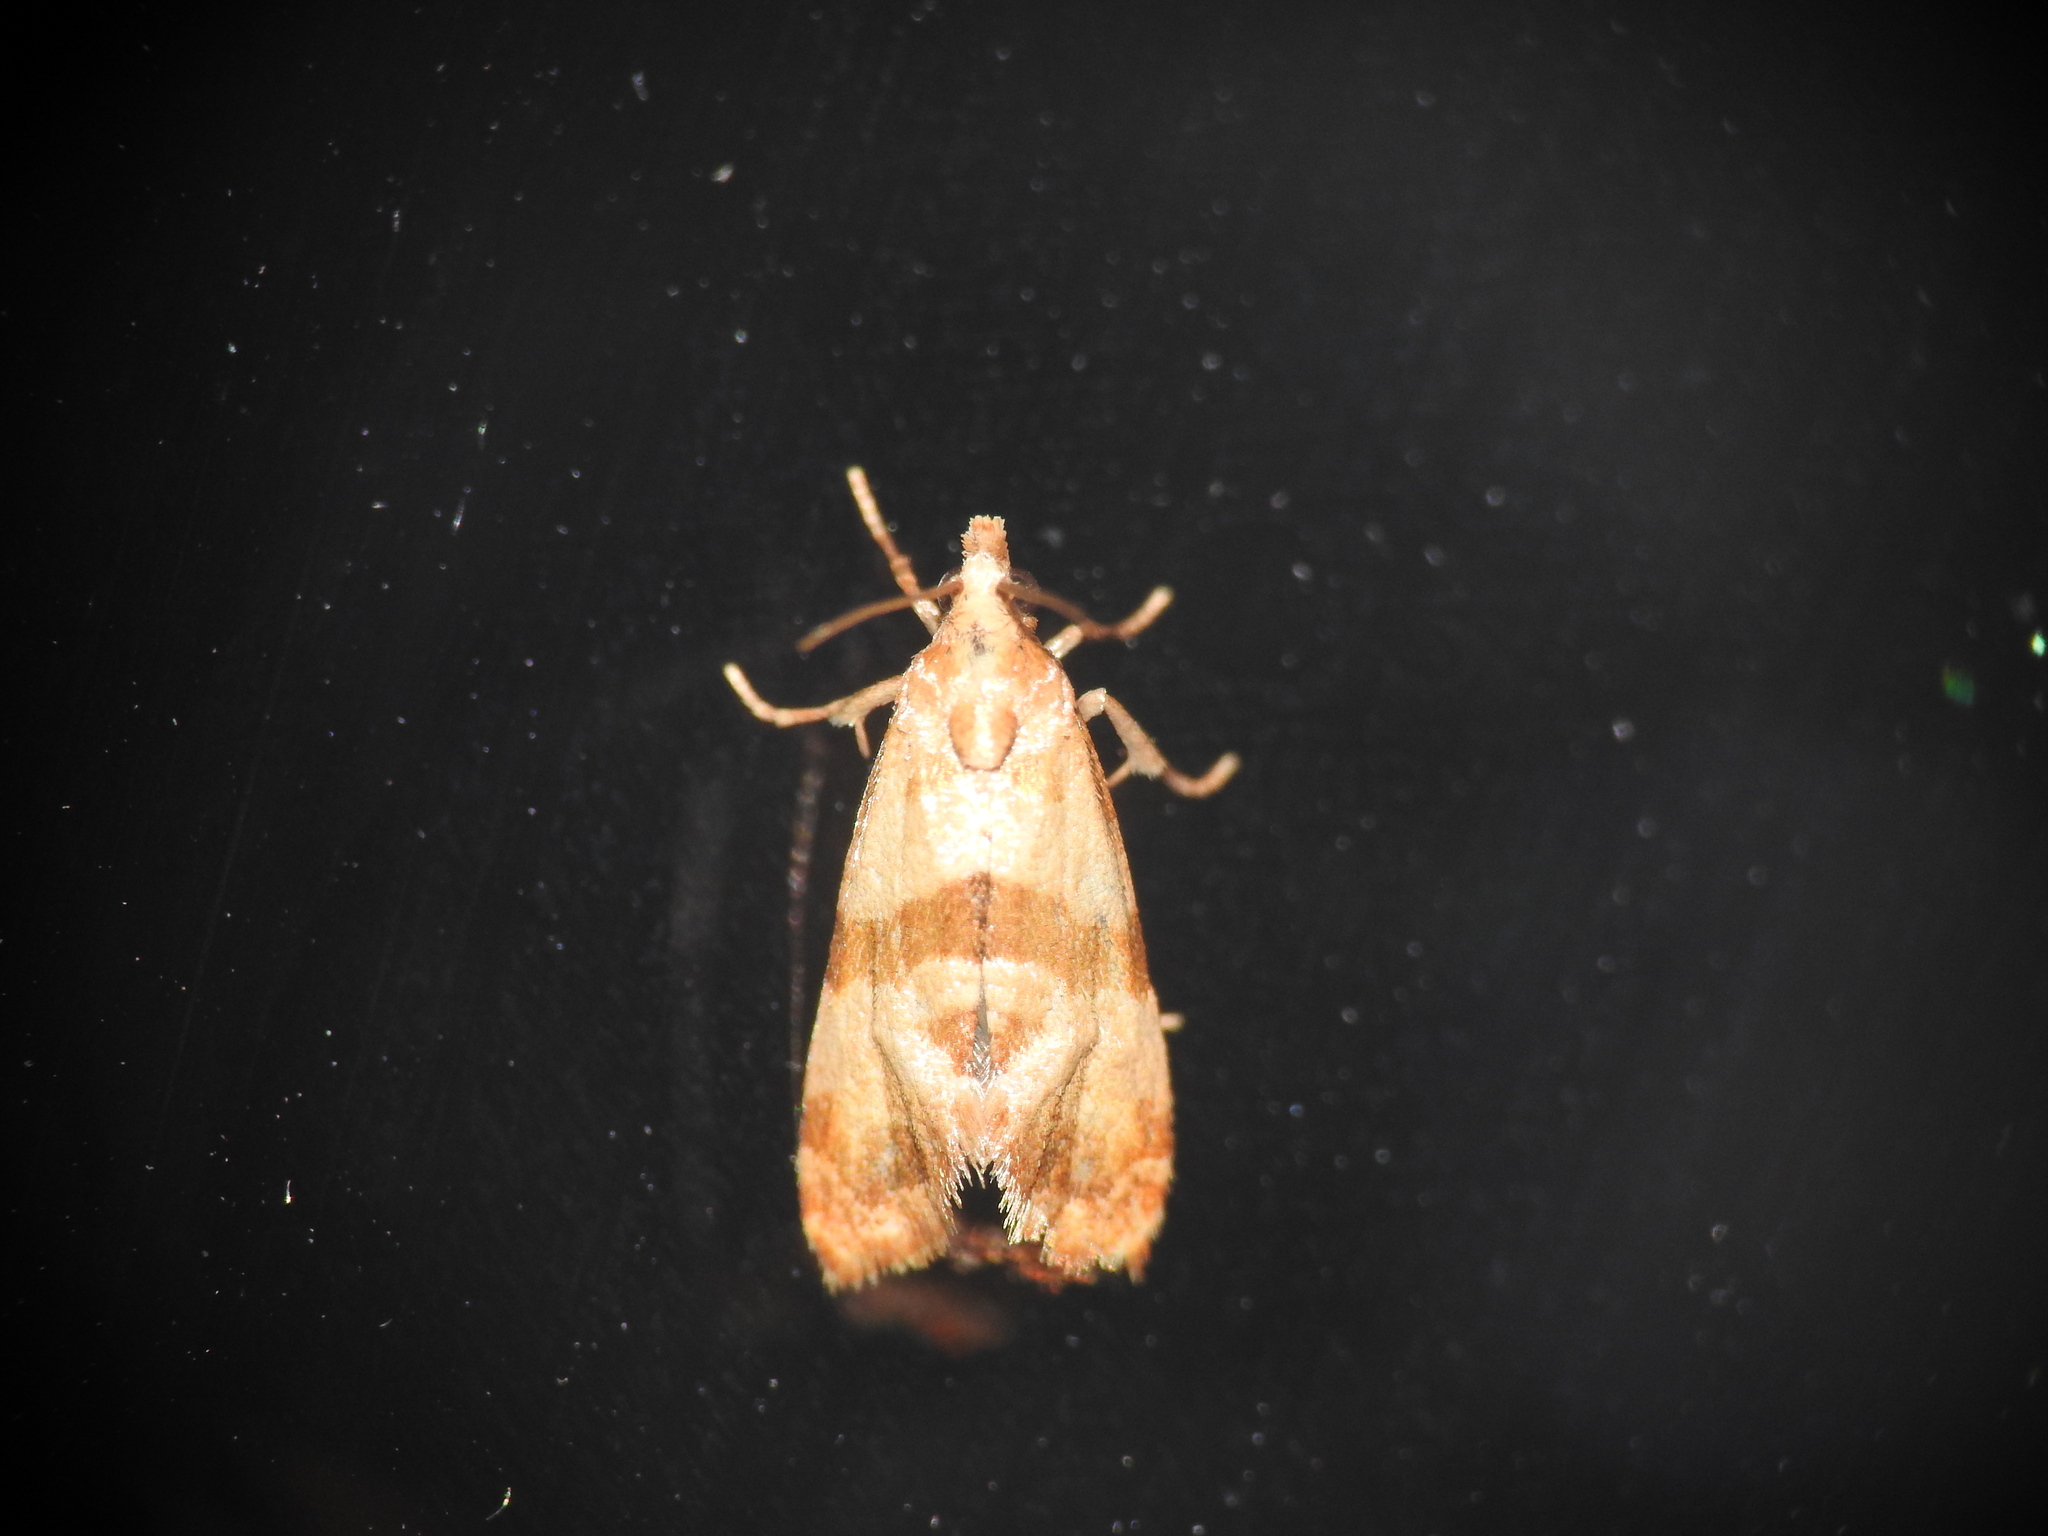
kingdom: Animalia
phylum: Arthropoda
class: Insecta
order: Lepidoptera
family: Tortricidae
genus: Phalonidia
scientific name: Phalonidia contractana
